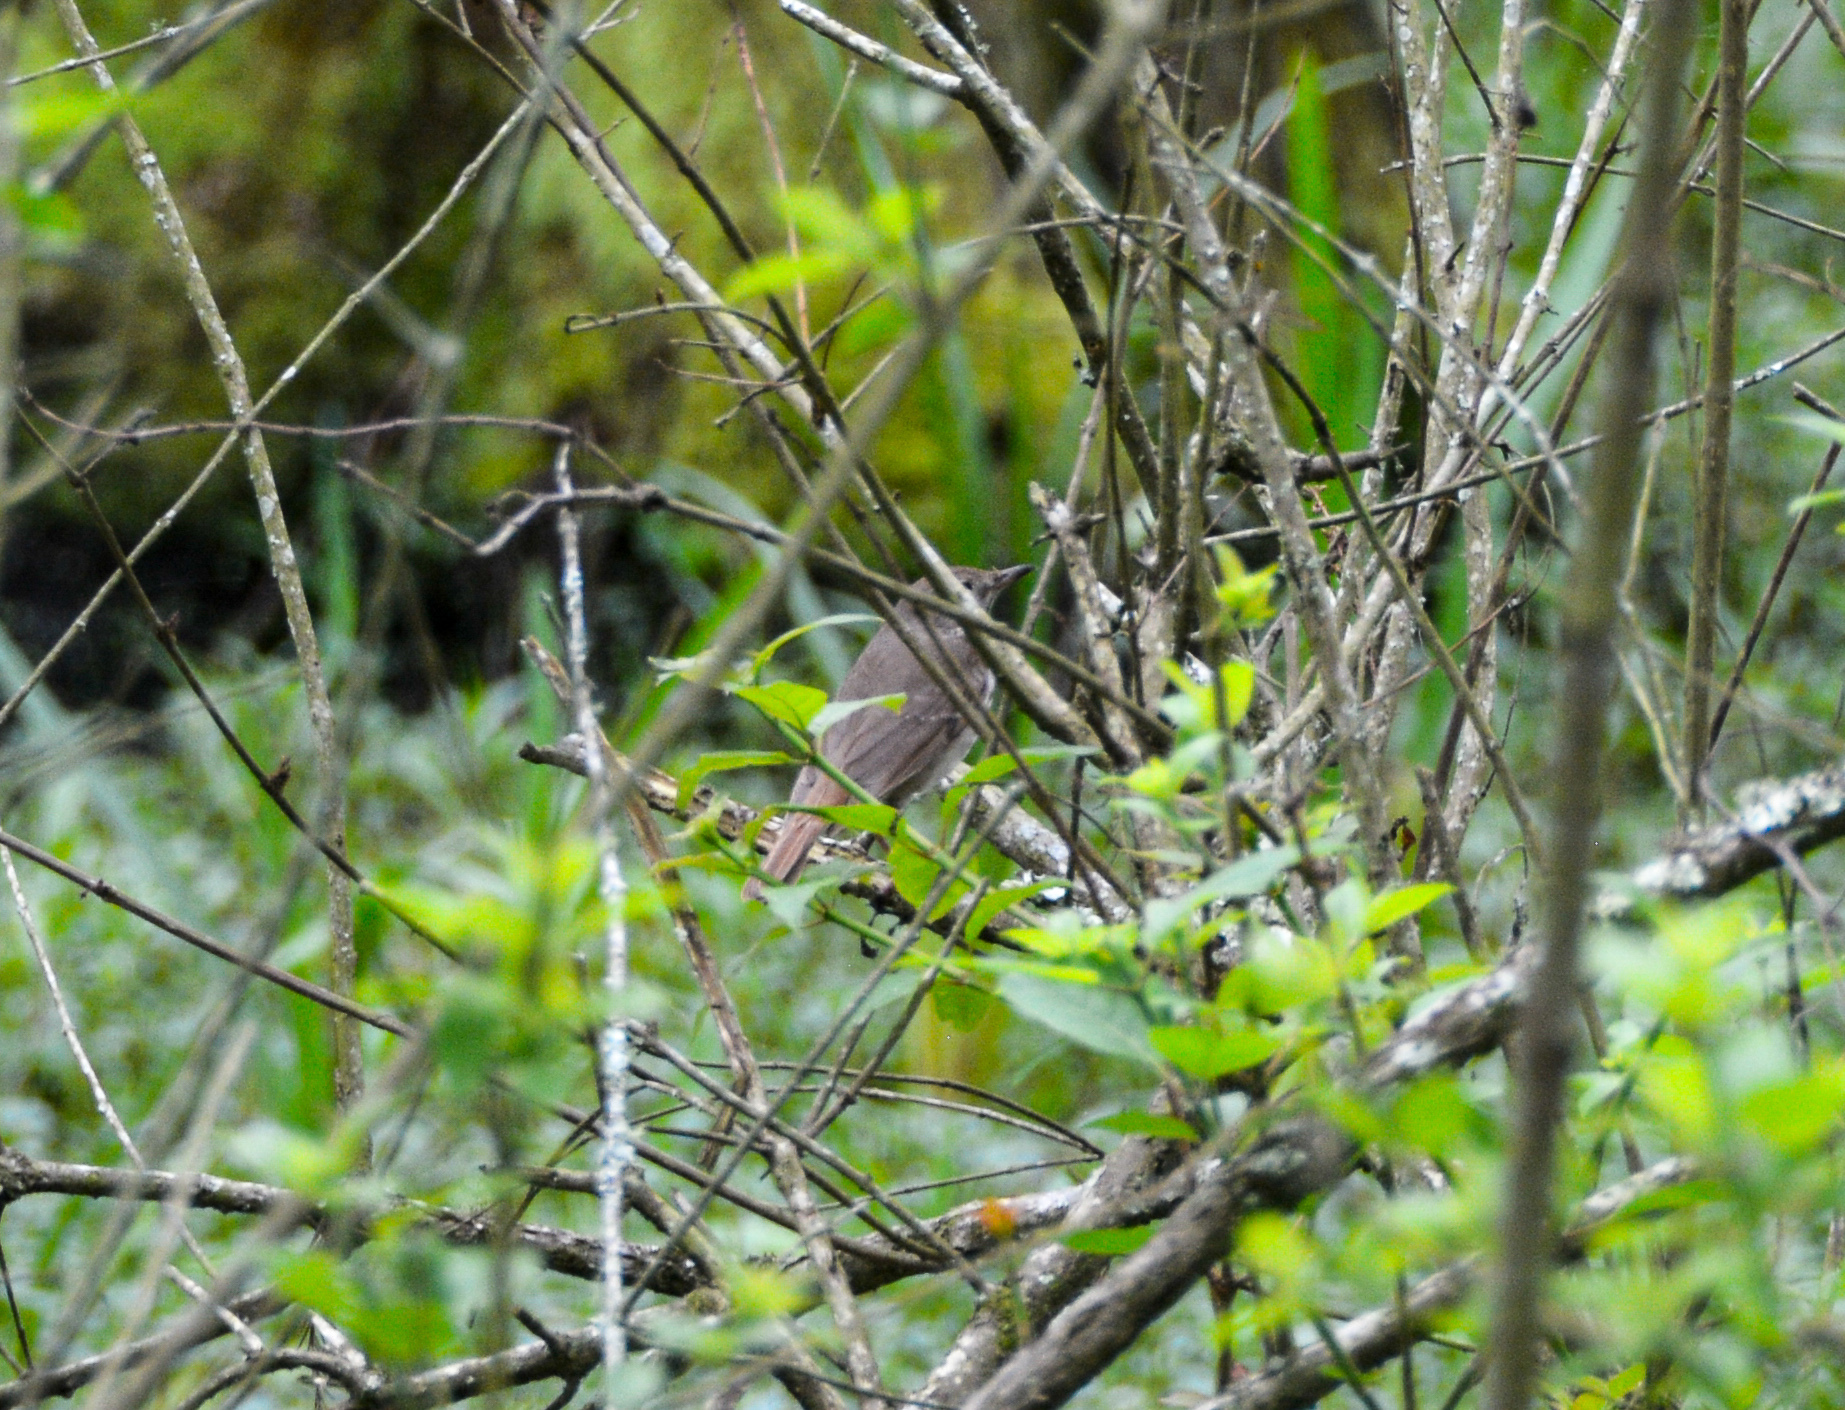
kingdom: Animalia
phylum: Chordata
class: Aves
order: Passeriformes
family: Turdidae
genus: Catharus
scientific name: Catharus guttatus
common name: Hermit thrush
